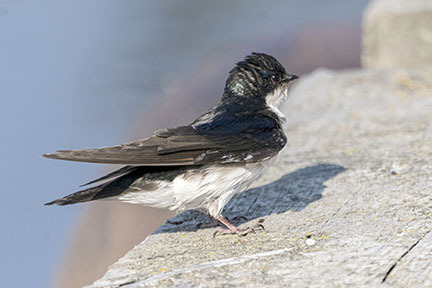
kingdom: Animalia
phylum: Chordata
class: Aves
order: Passeriformes
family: Hirundinidae
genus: Tachycineta
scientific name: Tachycineta bicolor
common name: Tree swallow
